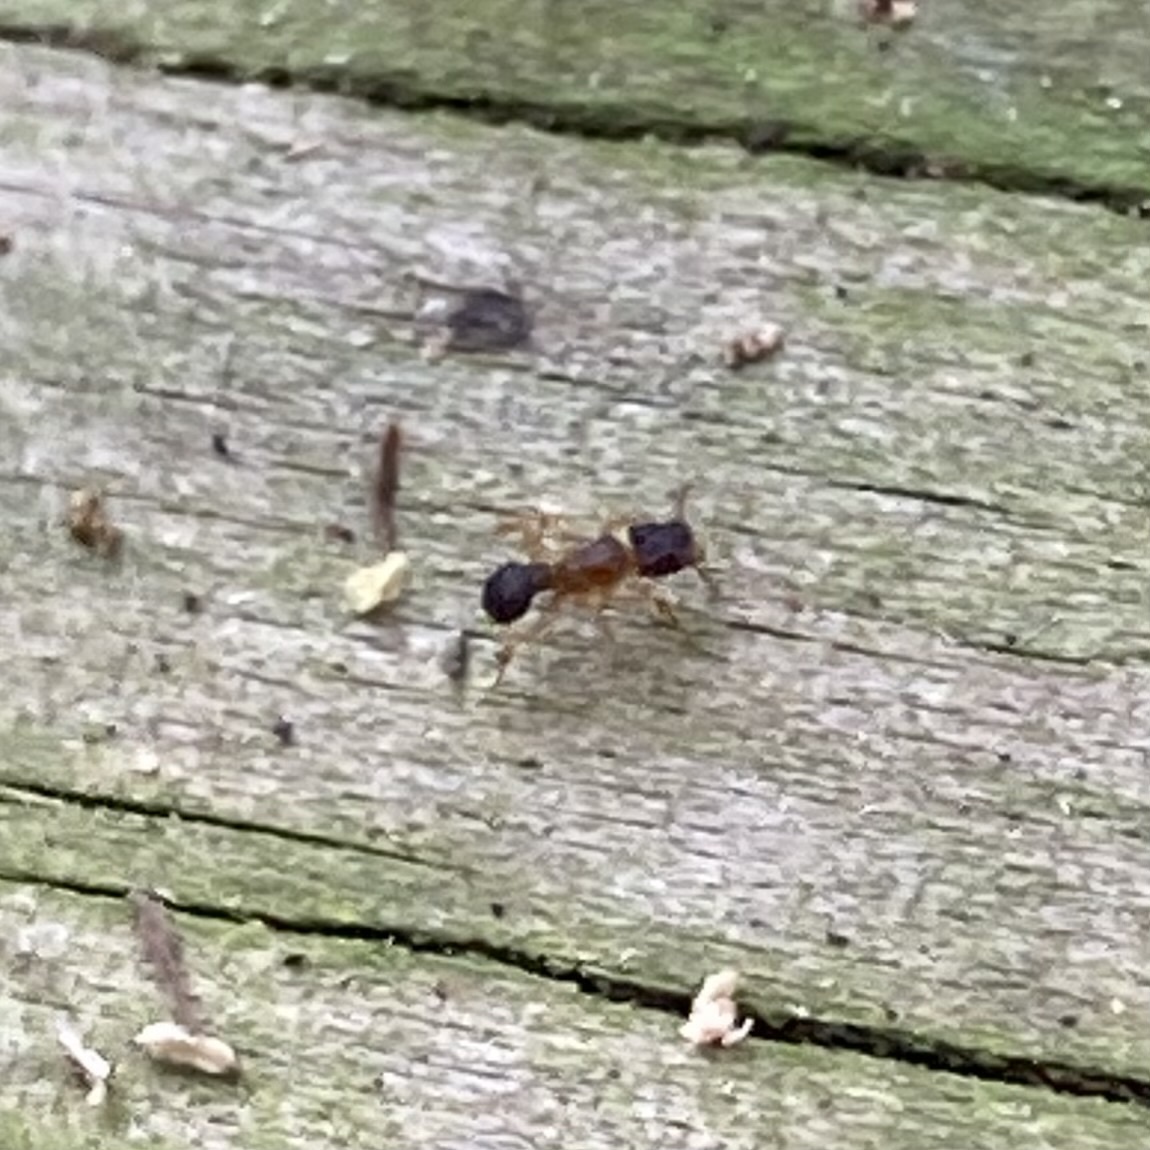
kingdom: Animalia
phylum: Arthropoda
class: Insecta
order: Hymenoptera
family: Formicidae
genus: Cyphomyrmex
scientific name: Cyphomyrmex minutus
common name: Ant
